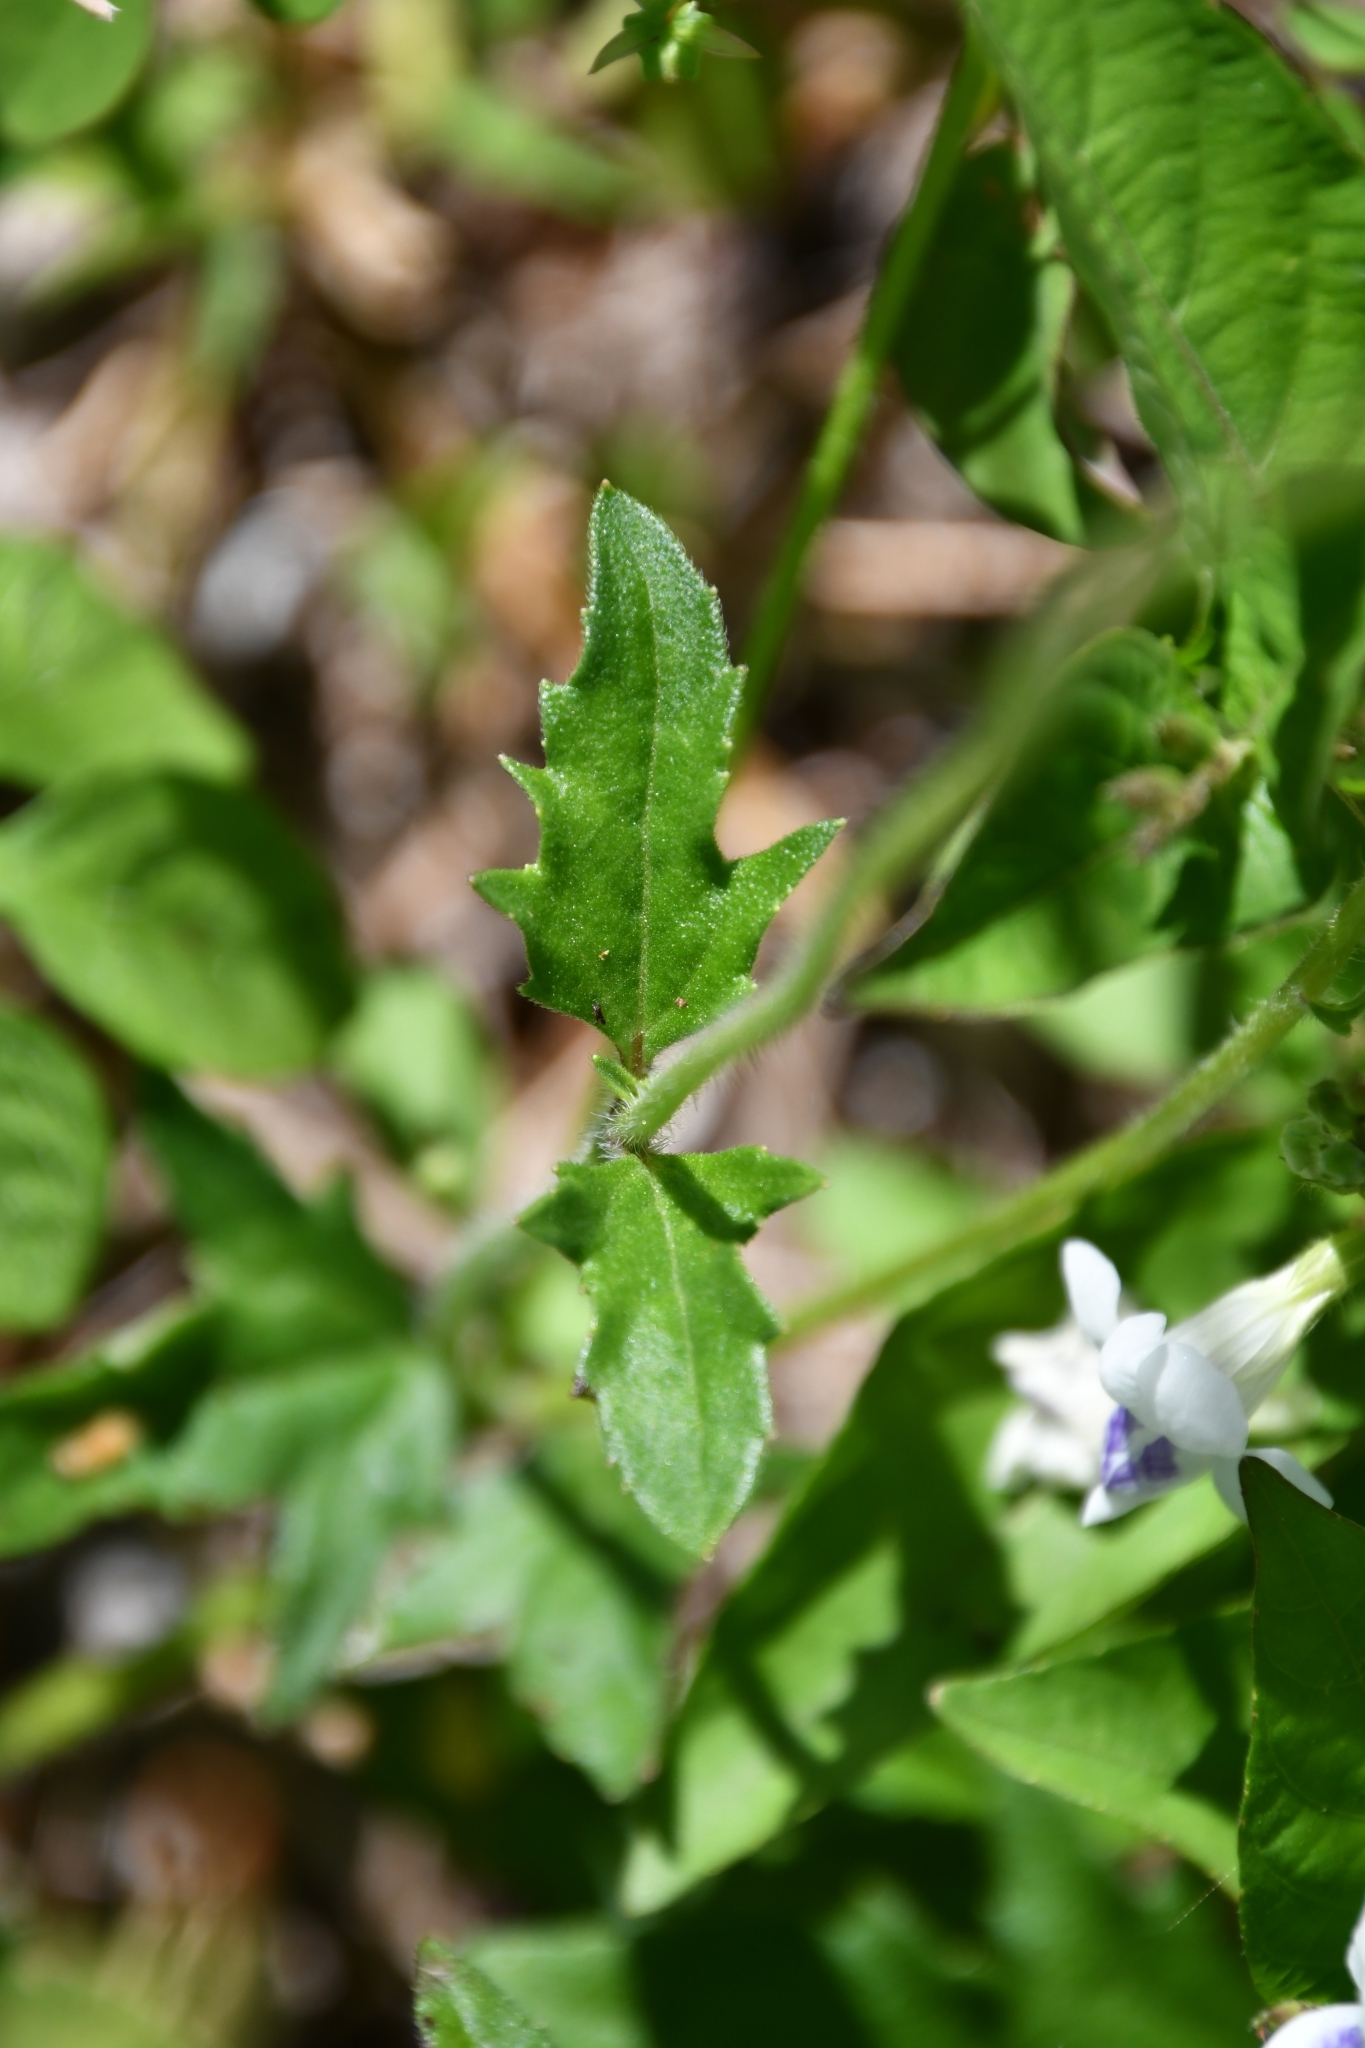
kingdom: Plantae
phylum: Tracheophyta
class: Magnoliopsida
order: Asterales
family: Asteraceae
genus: Tridax
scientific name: Tridax procumbens
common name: Coatbuttons
